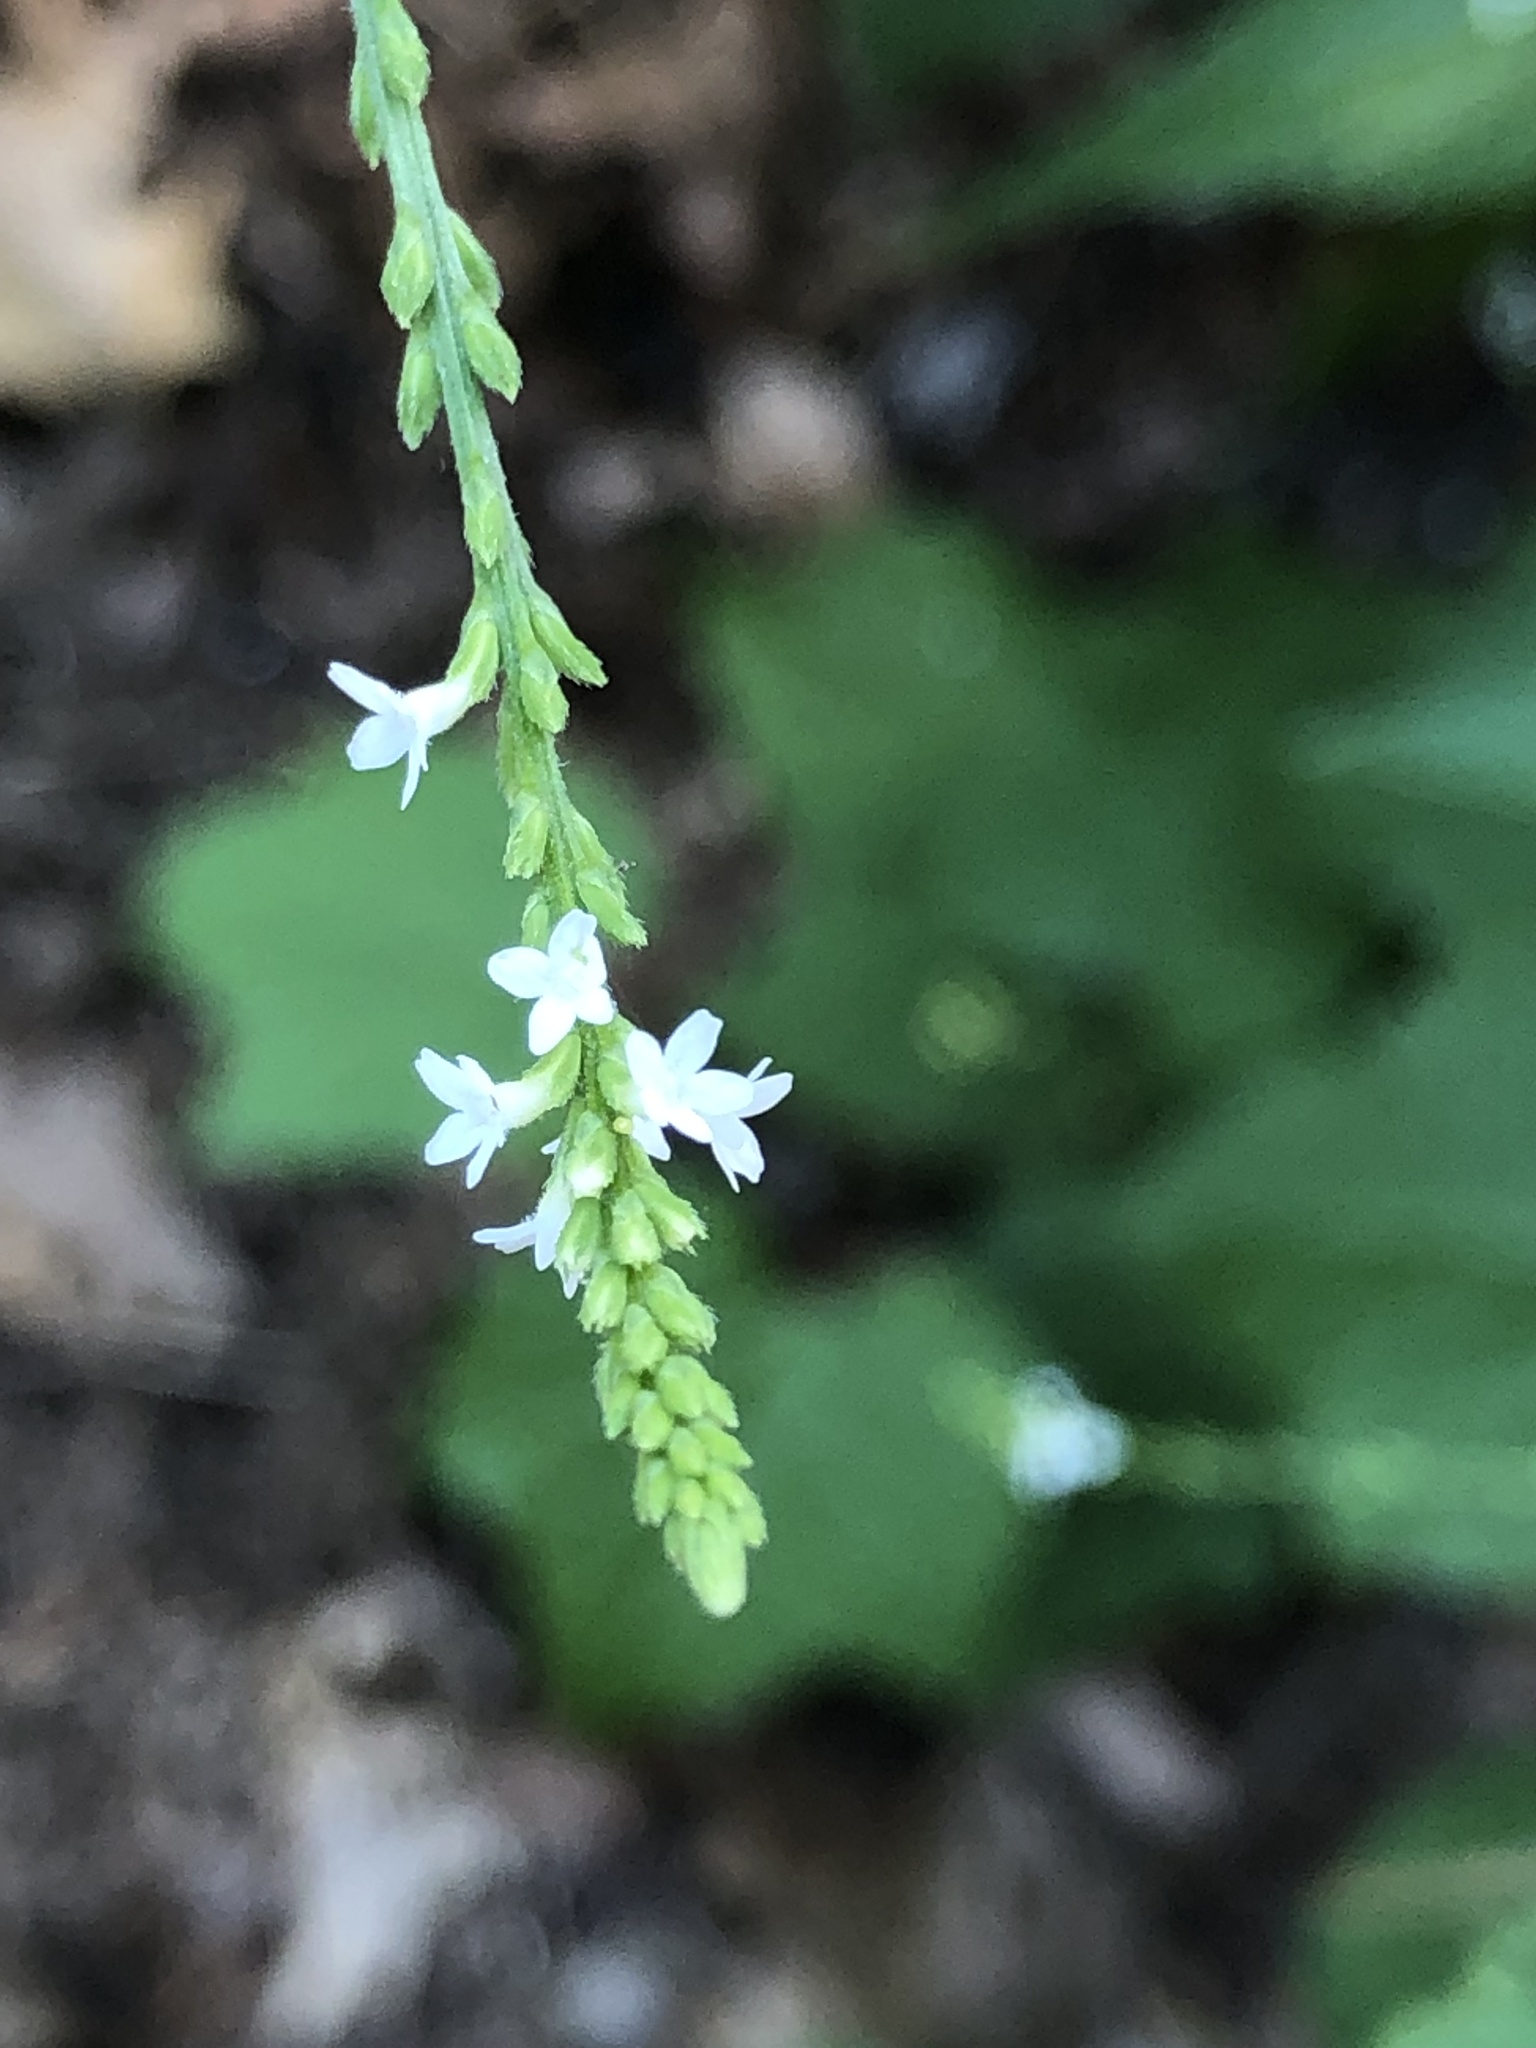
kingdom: Plantae
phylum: Tracheophyta
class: Magnoliopsida
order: Lamiales
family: Verbenaceae
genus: Verbena
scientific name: Verbena urticifolia
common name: Nettle-leaved vervain
